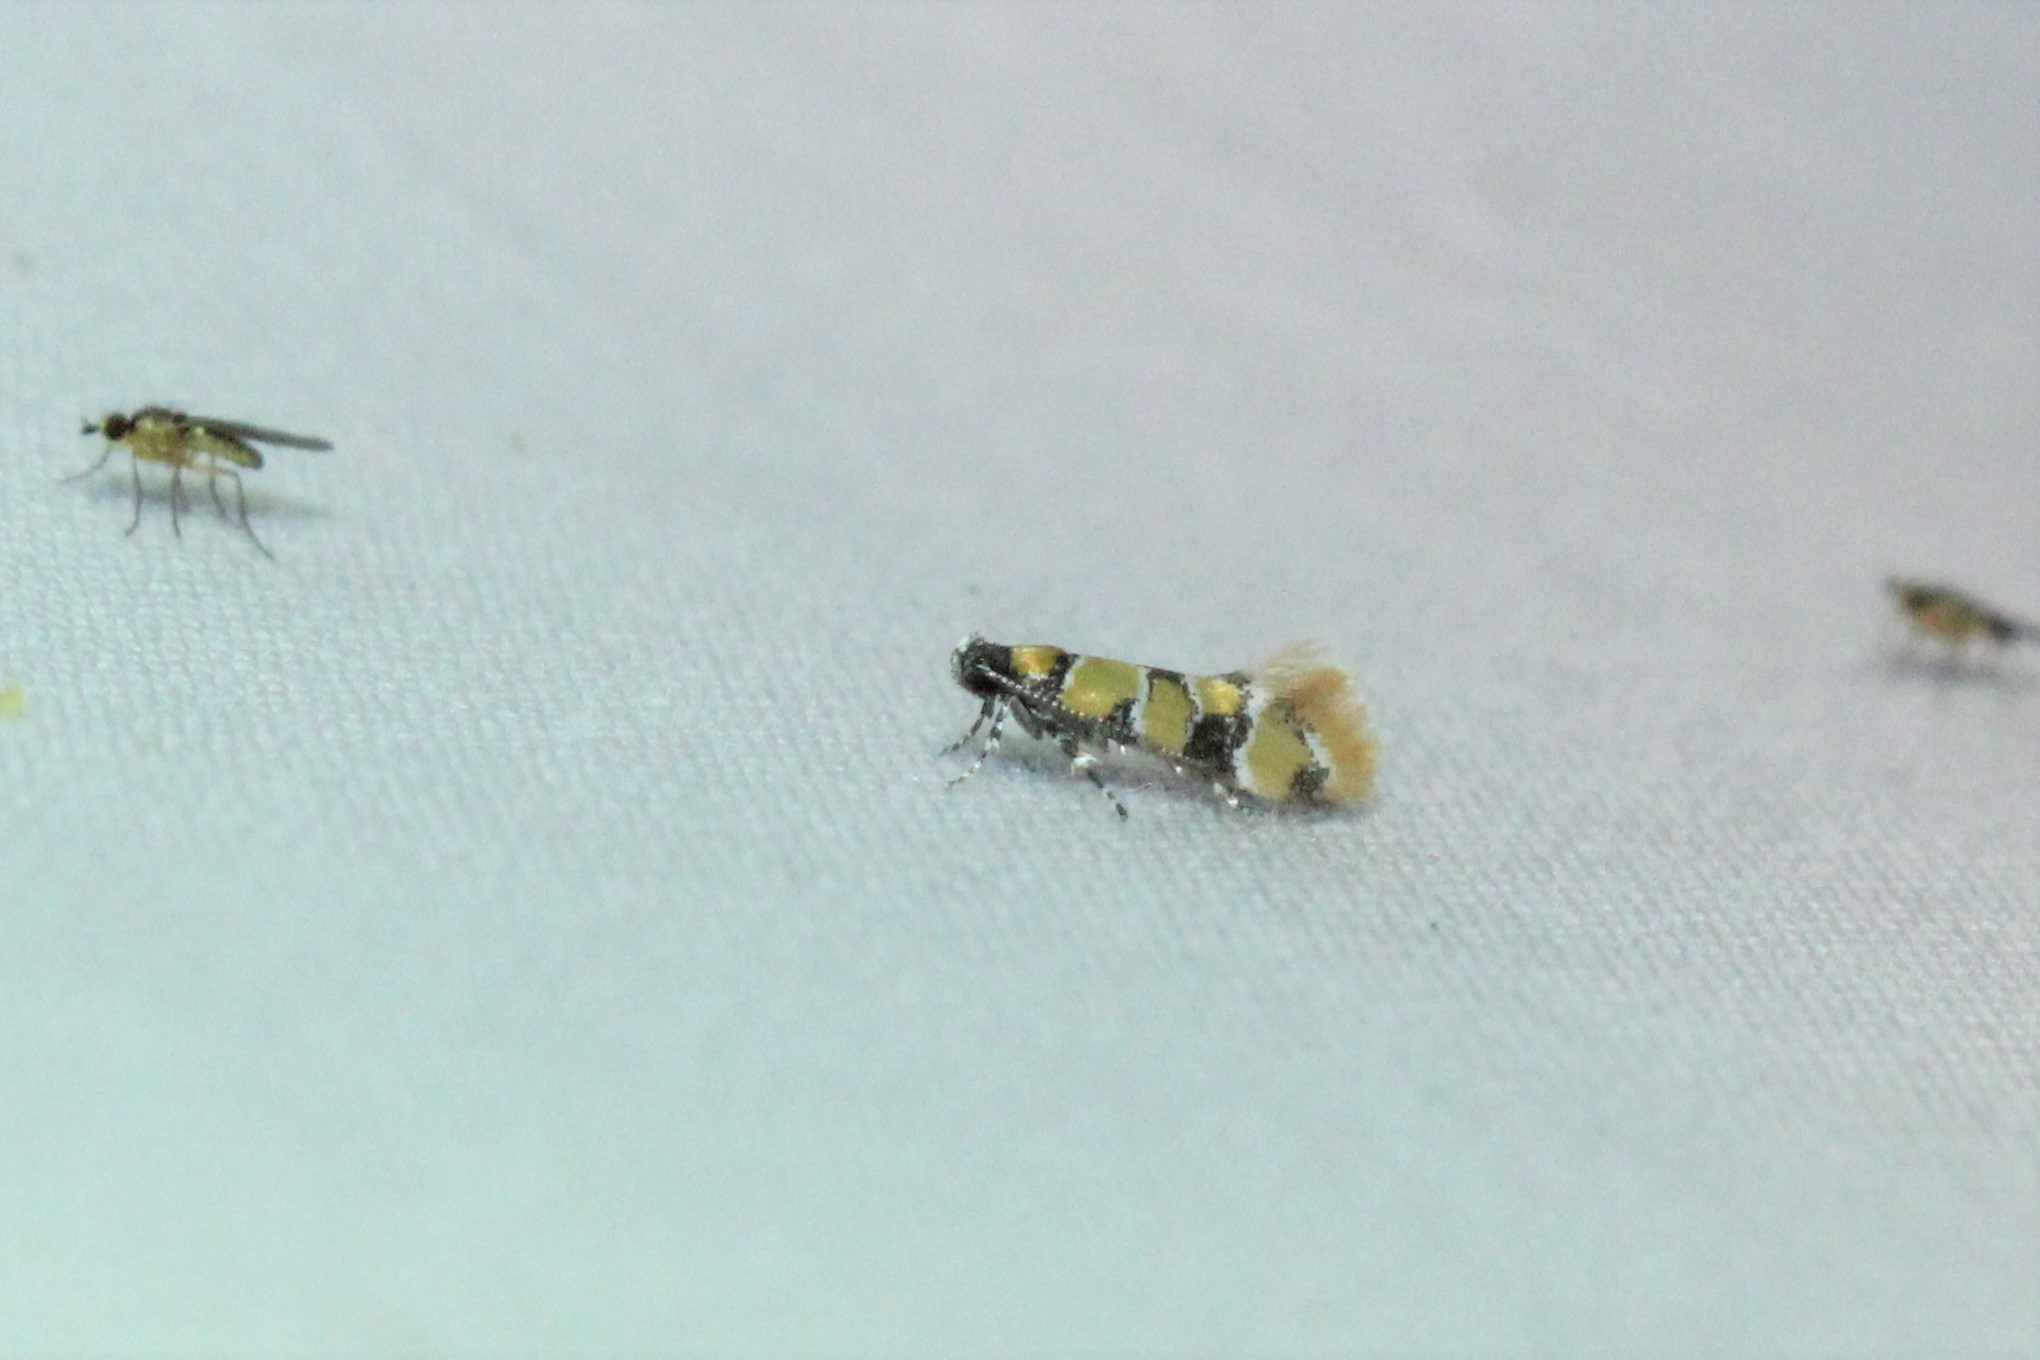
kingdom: Animalia
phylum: Arthropoda
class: Insecta
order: Lepidoptera
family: Oecophoridae
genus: Decantha
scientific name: Decantha borkhausenii
